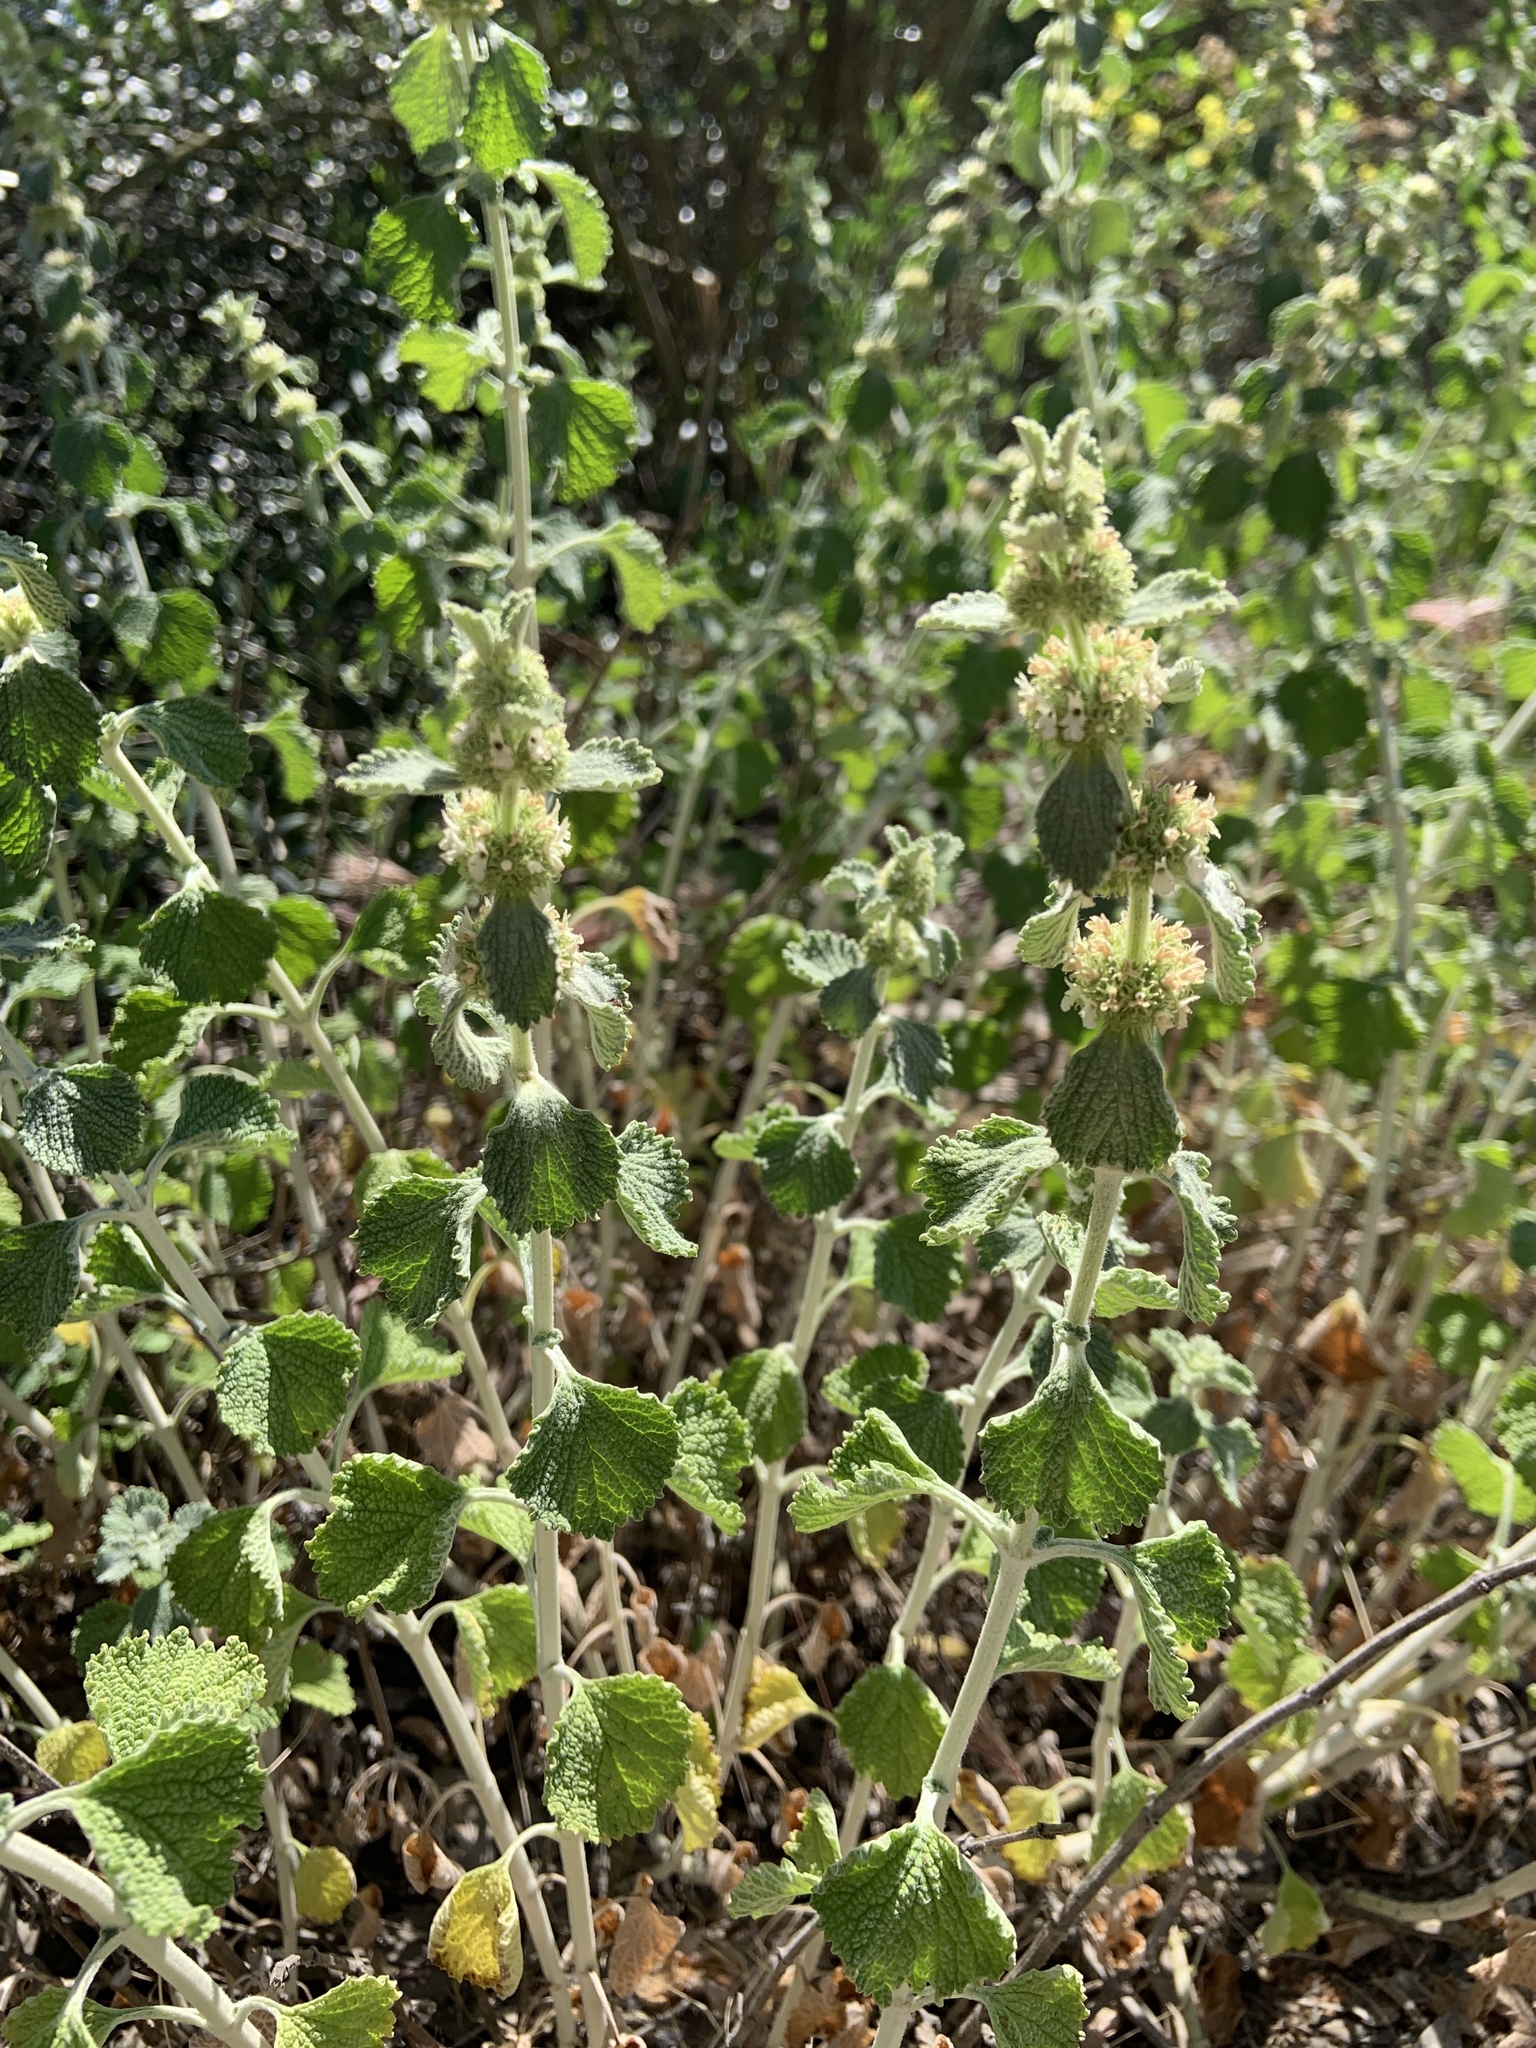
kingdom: Plantae
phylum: Tracheophyta
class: Magnoliopsida
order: Lamiales
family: Lamiaceae
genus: Marrubium
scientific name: Marrubium vulgare
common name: Horehound
